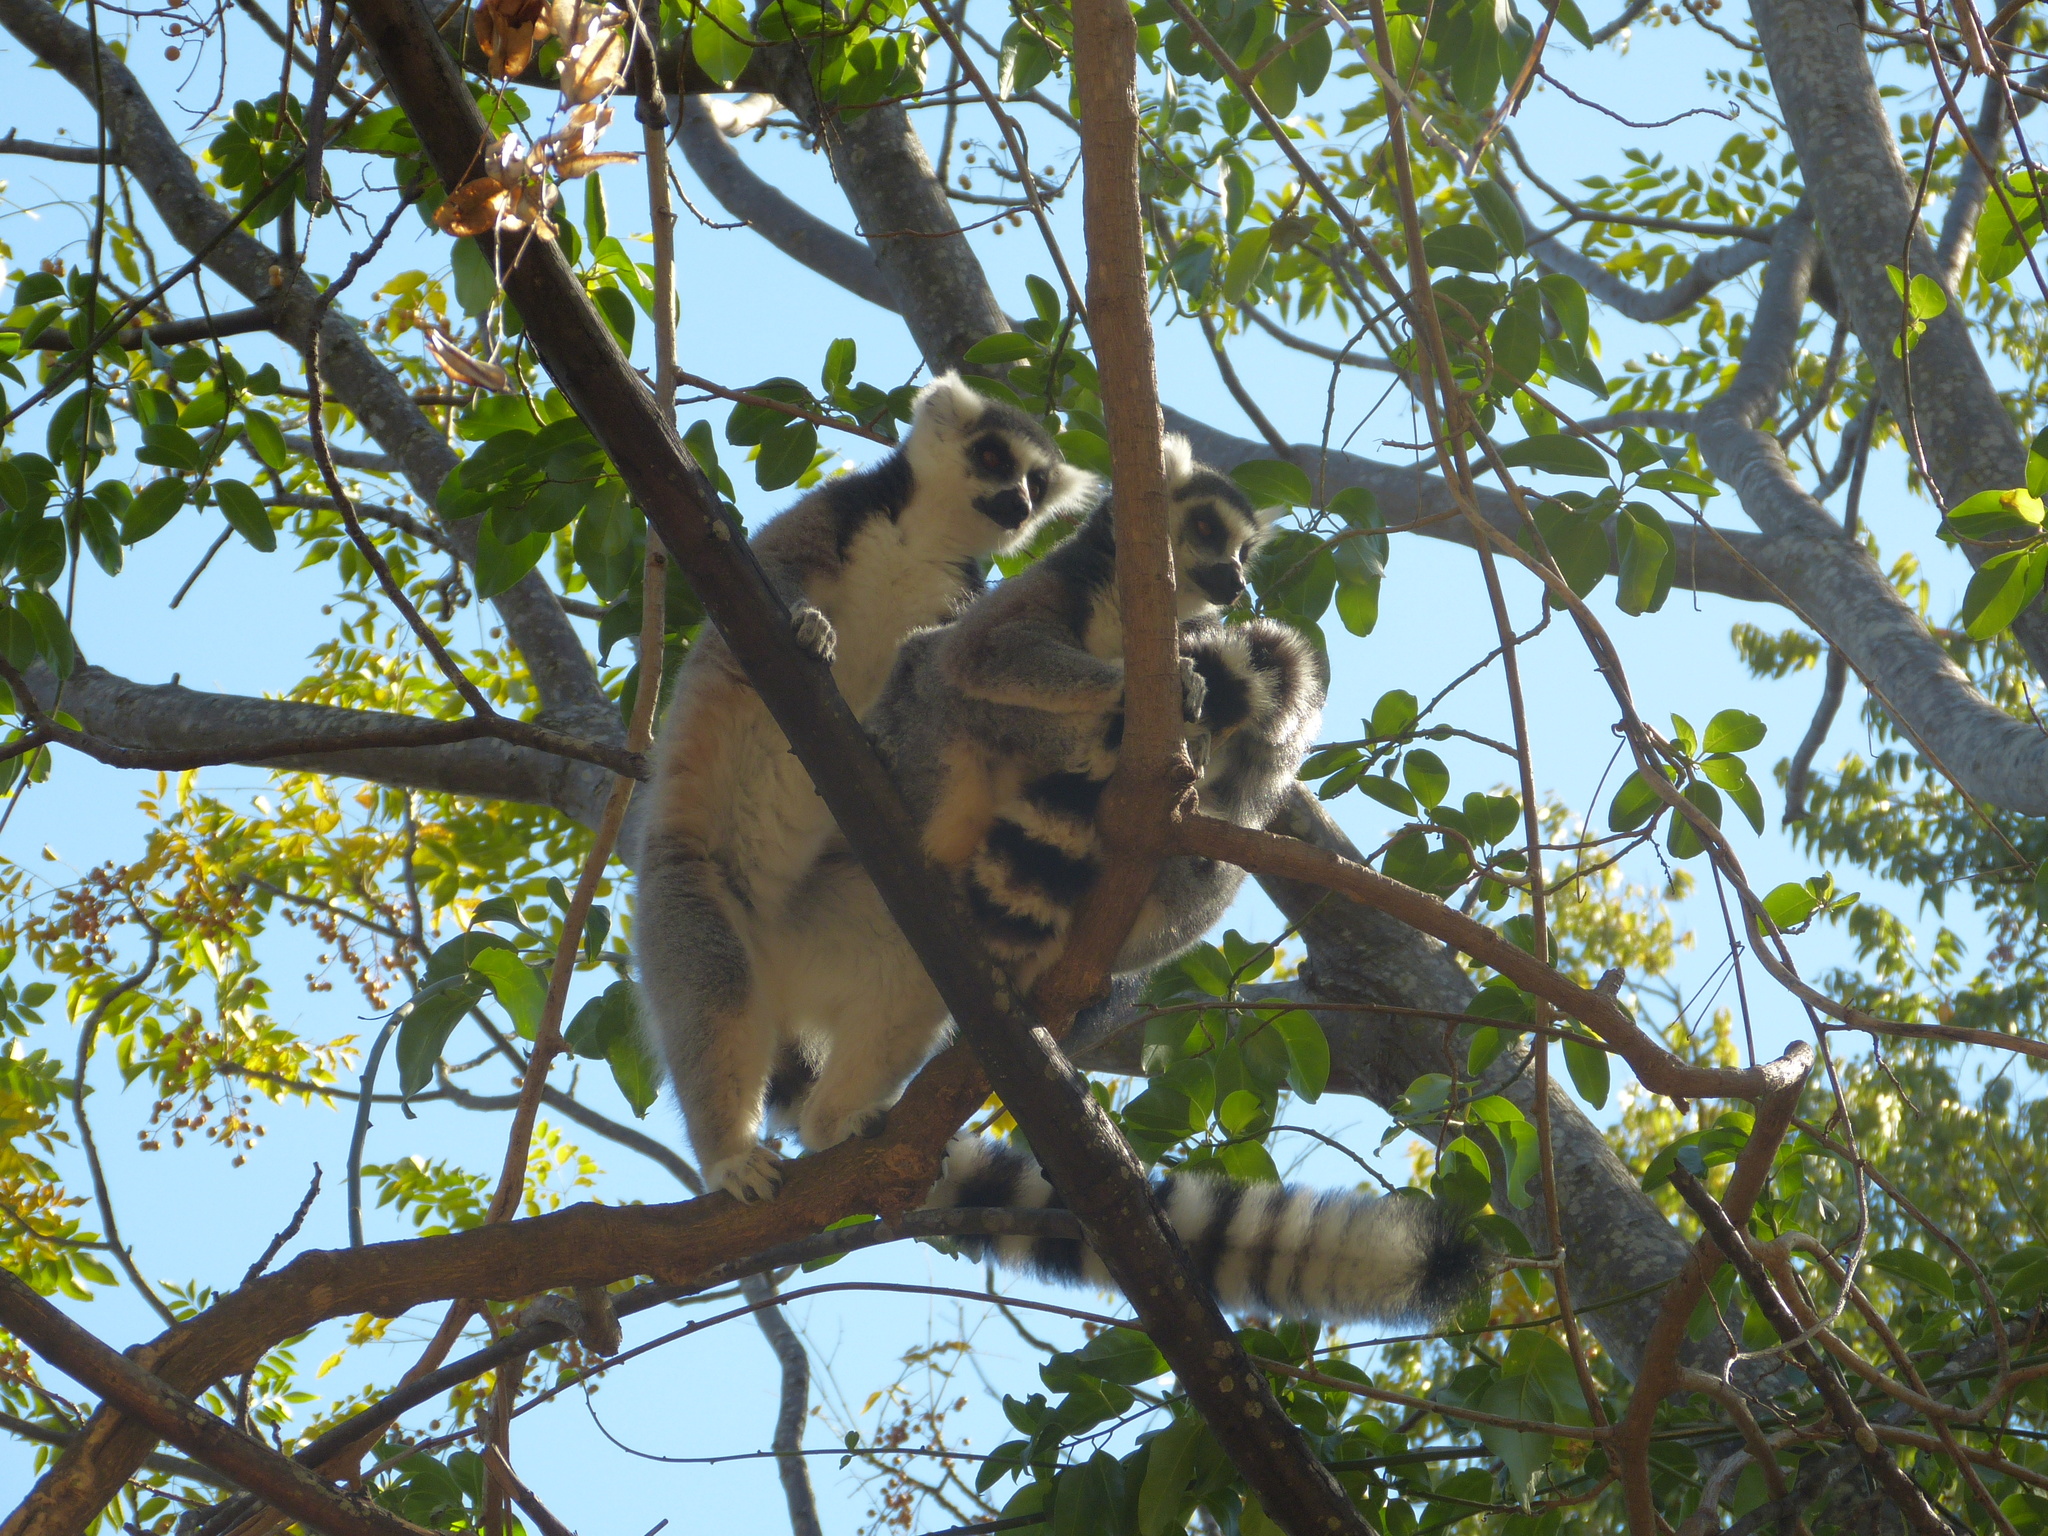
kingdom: Animalia
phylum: Chordata
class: Mammalia
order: Primates
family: Lemuridae
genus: Lemur
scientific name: Lemur catta
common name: Ring-tailed lemur
